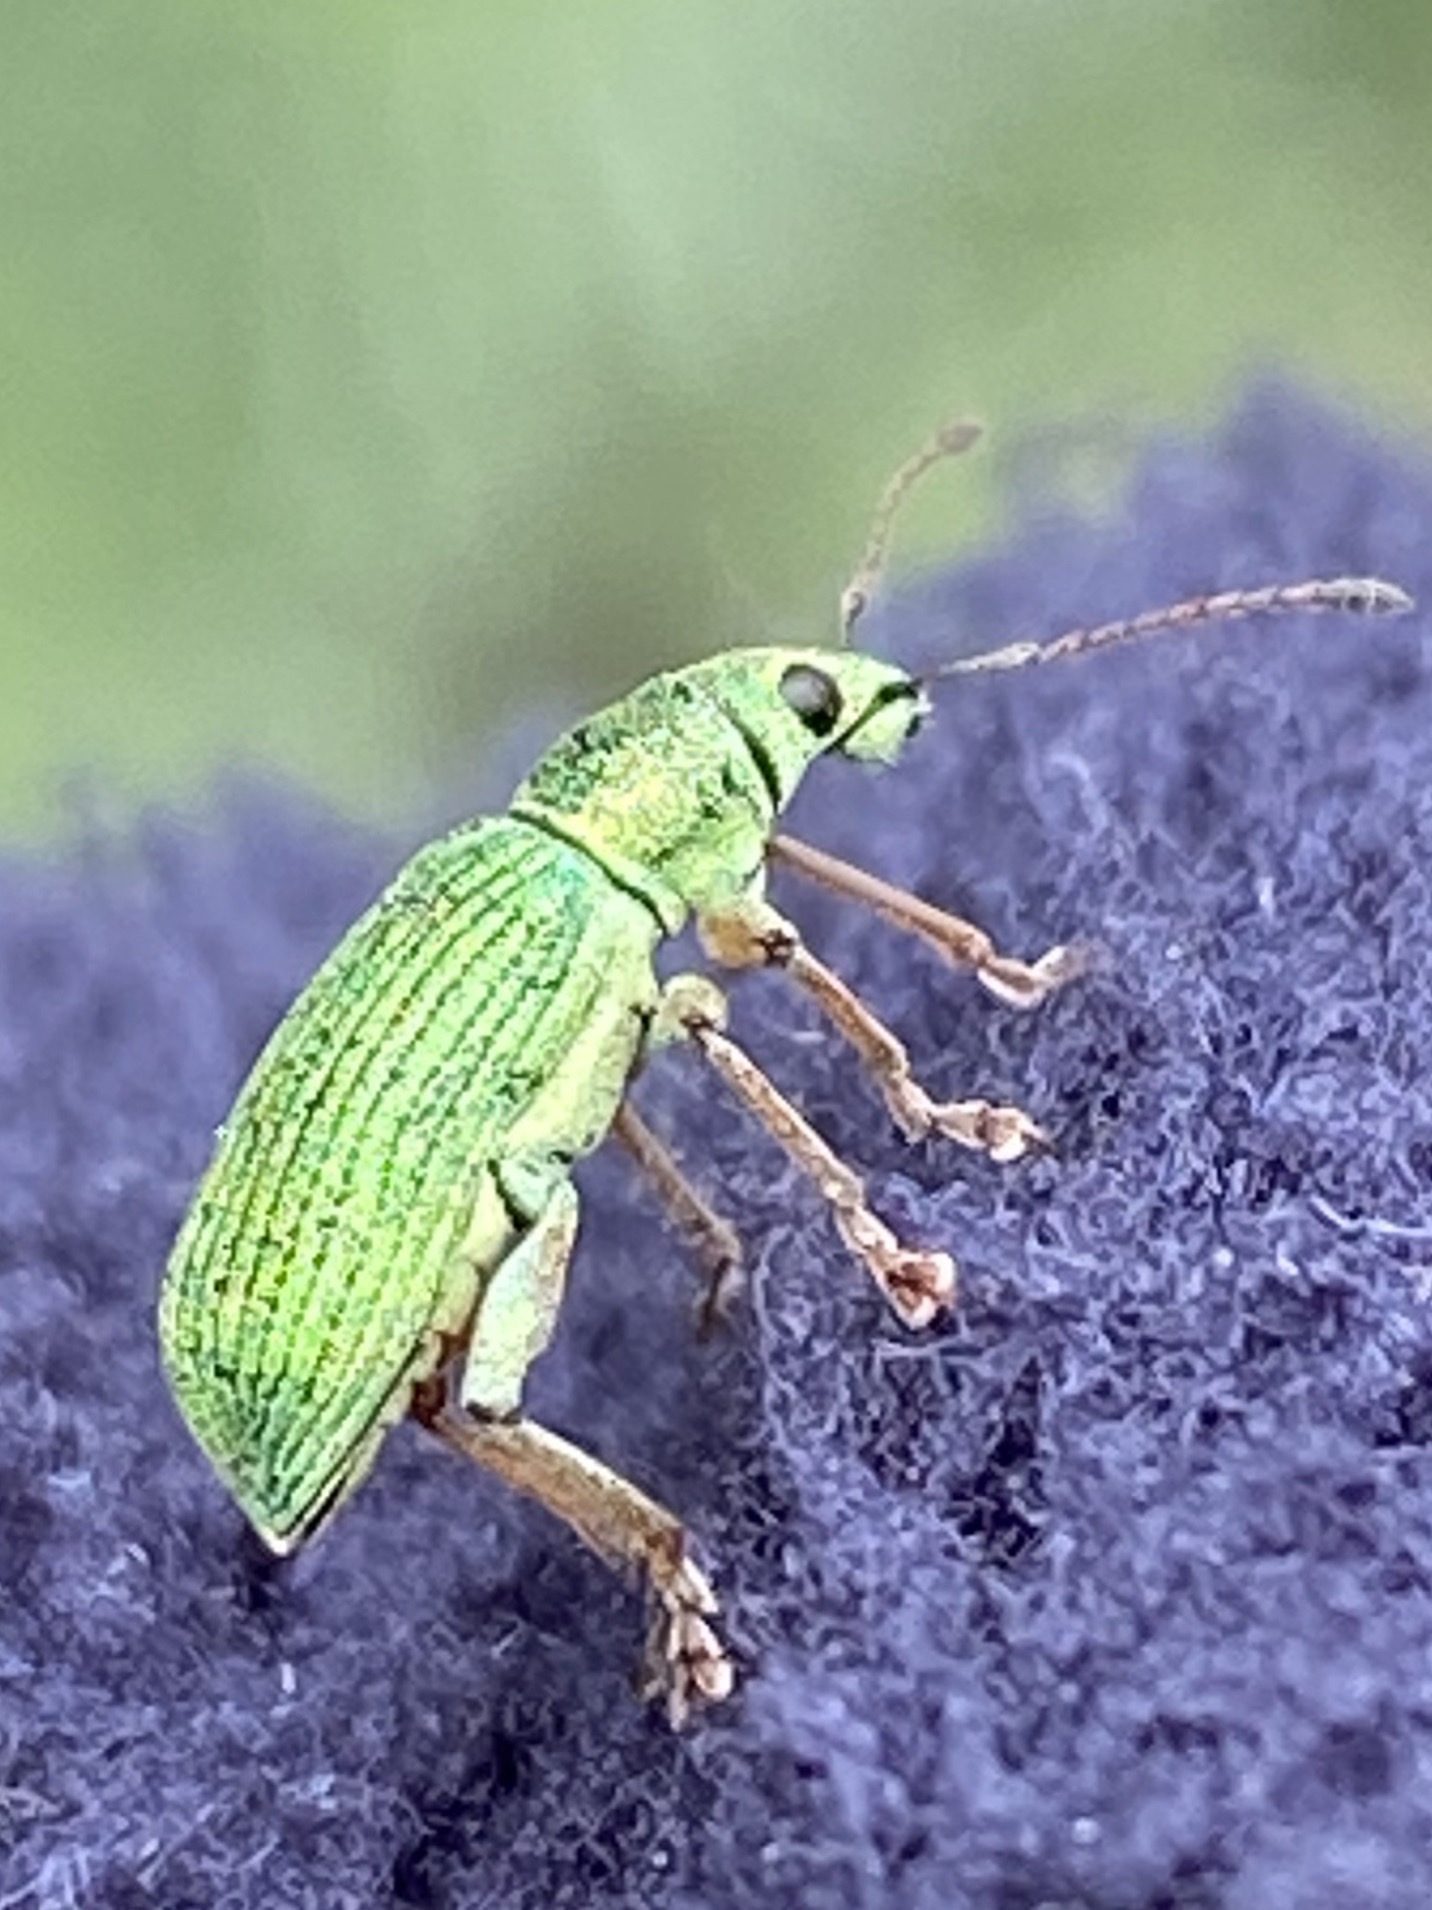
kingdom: Animalia
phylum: Arthropoda
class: Insecta
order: Coleoptera
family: Curculionidae
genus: Polydrusus
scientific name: Polydrusus formosus
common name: Weevil
